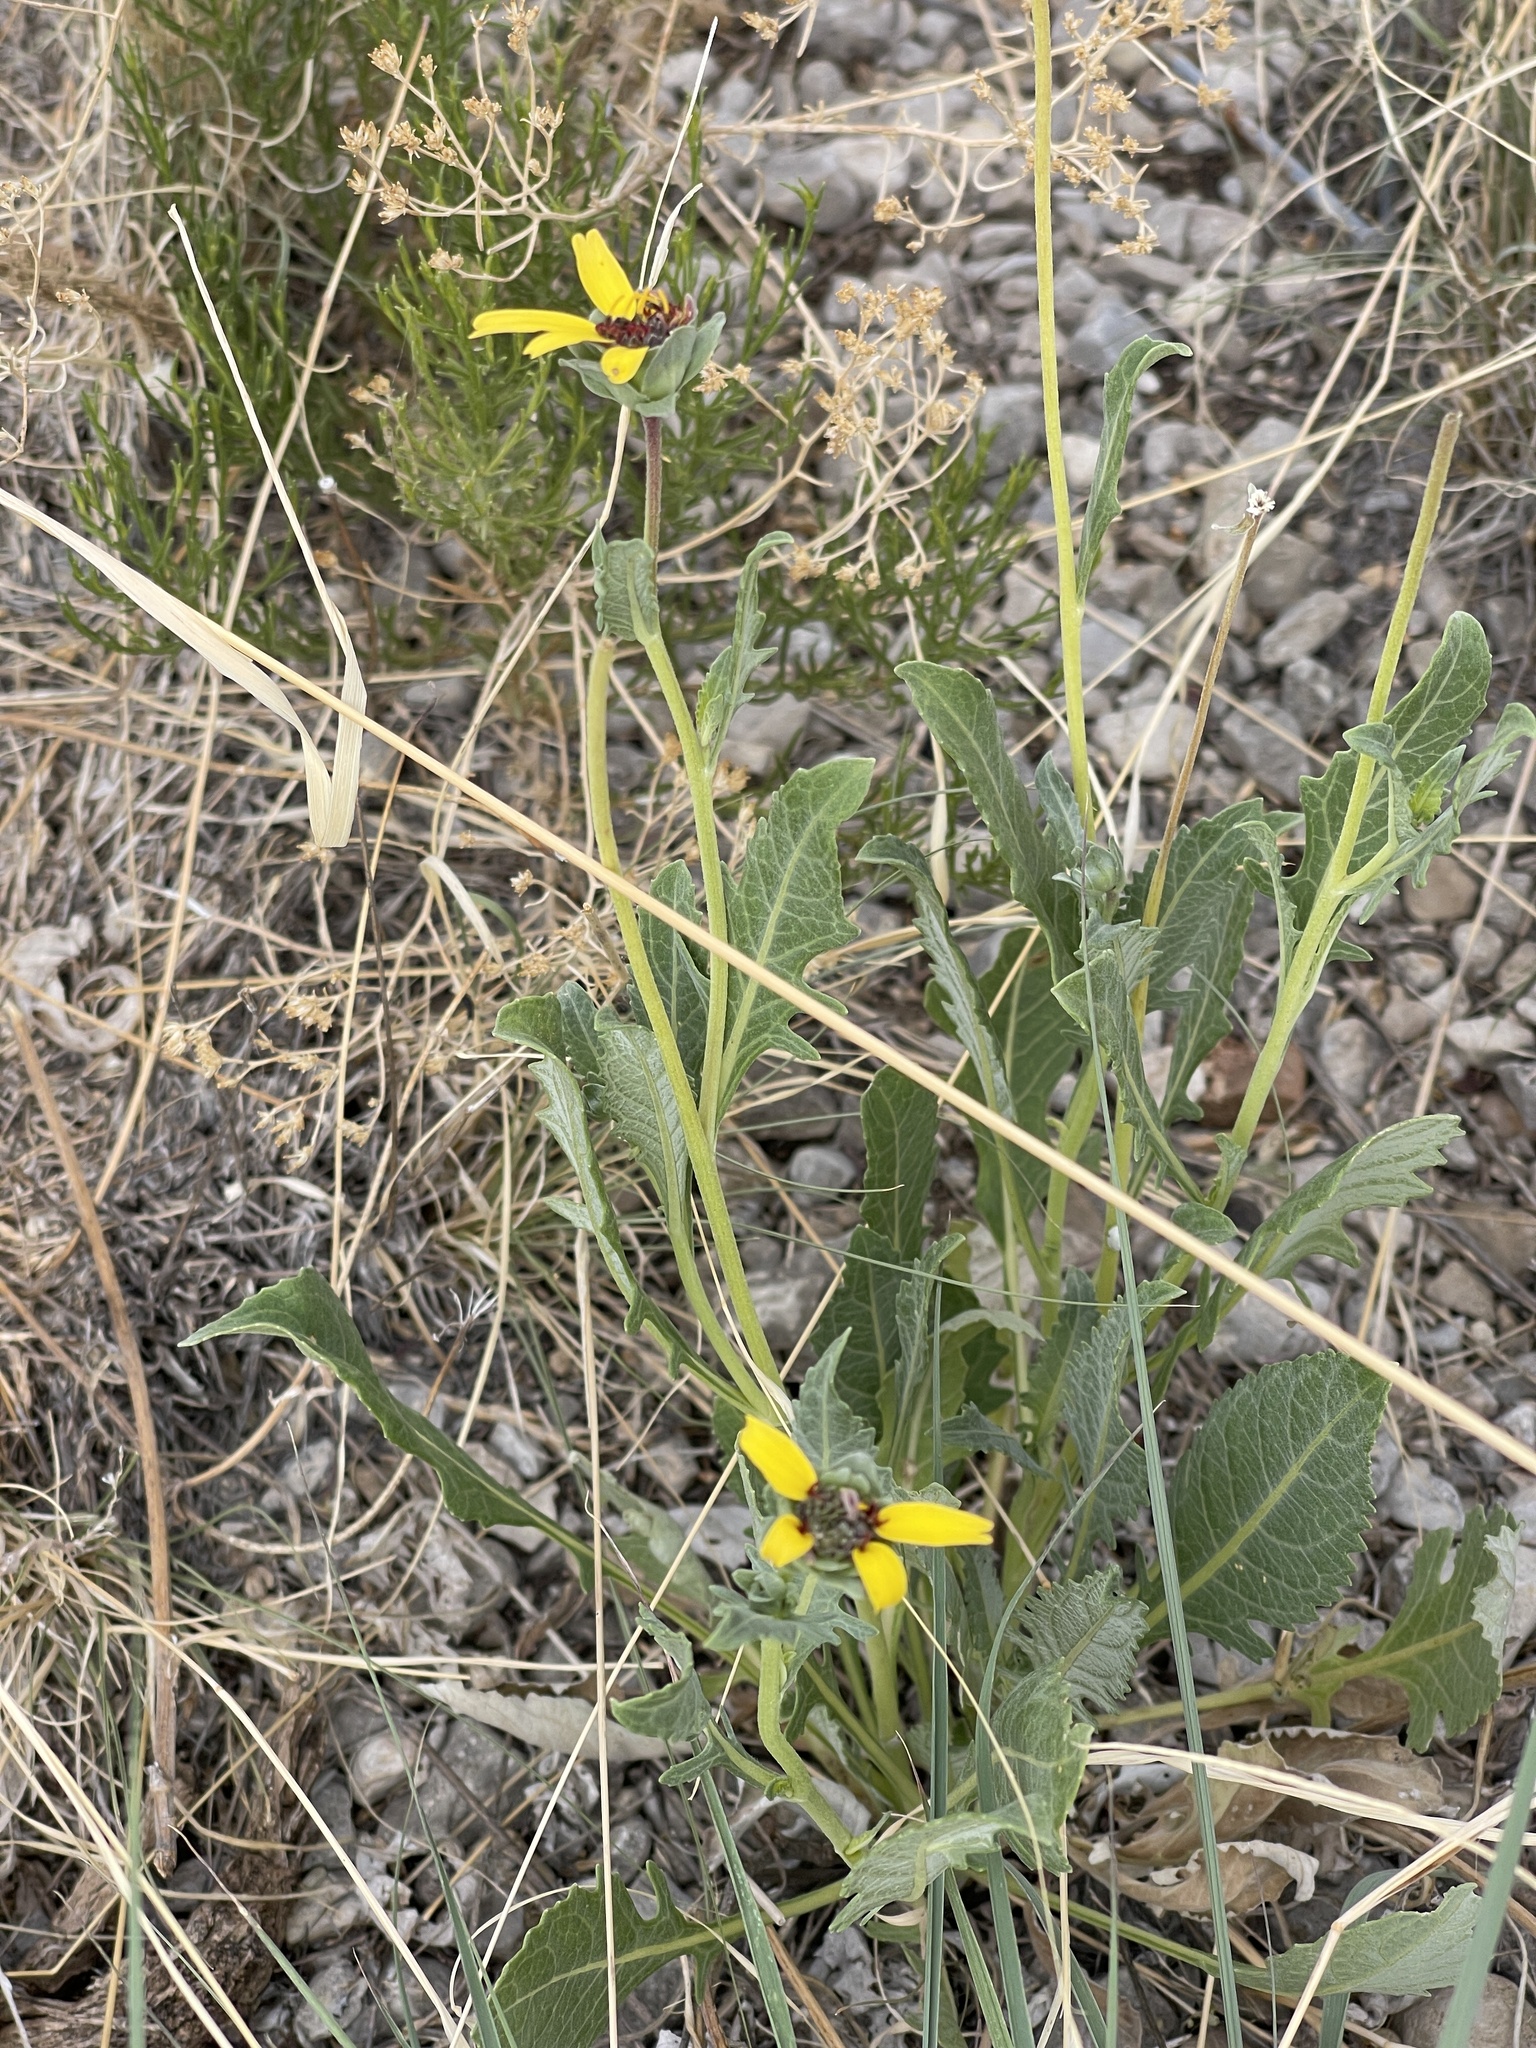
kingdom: Plantae
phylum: Tracheophyta
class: Magnoliopsida
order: Asterales
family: Asteraceae
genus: Berlandiera
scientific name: Berlandiera lyrata
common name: Chocolate-flower
